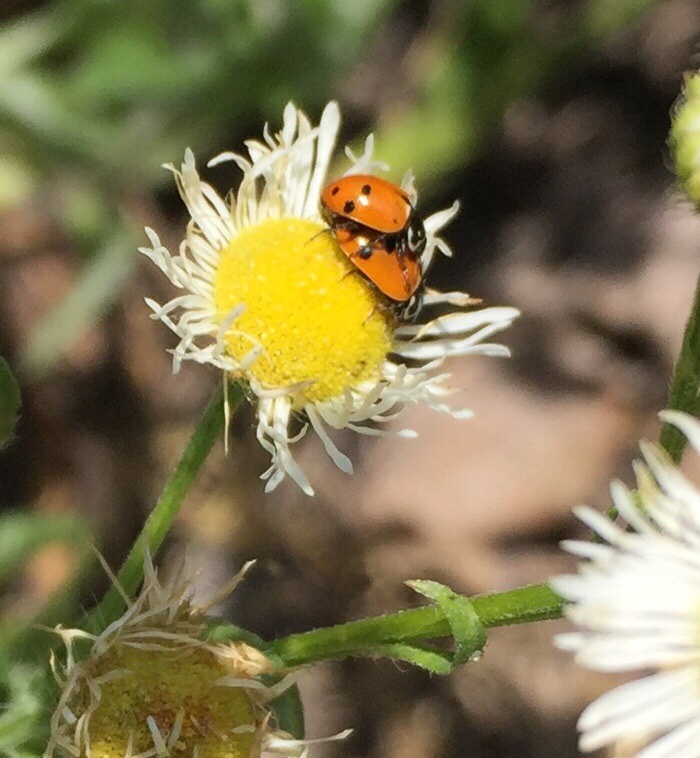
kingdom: Animalia
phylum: Arthropoda
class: Insecta
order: Coleoptera
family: Coccinellidae
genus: Hippodamia
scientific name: Hippodamia variegata
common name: Ladybird beetle
